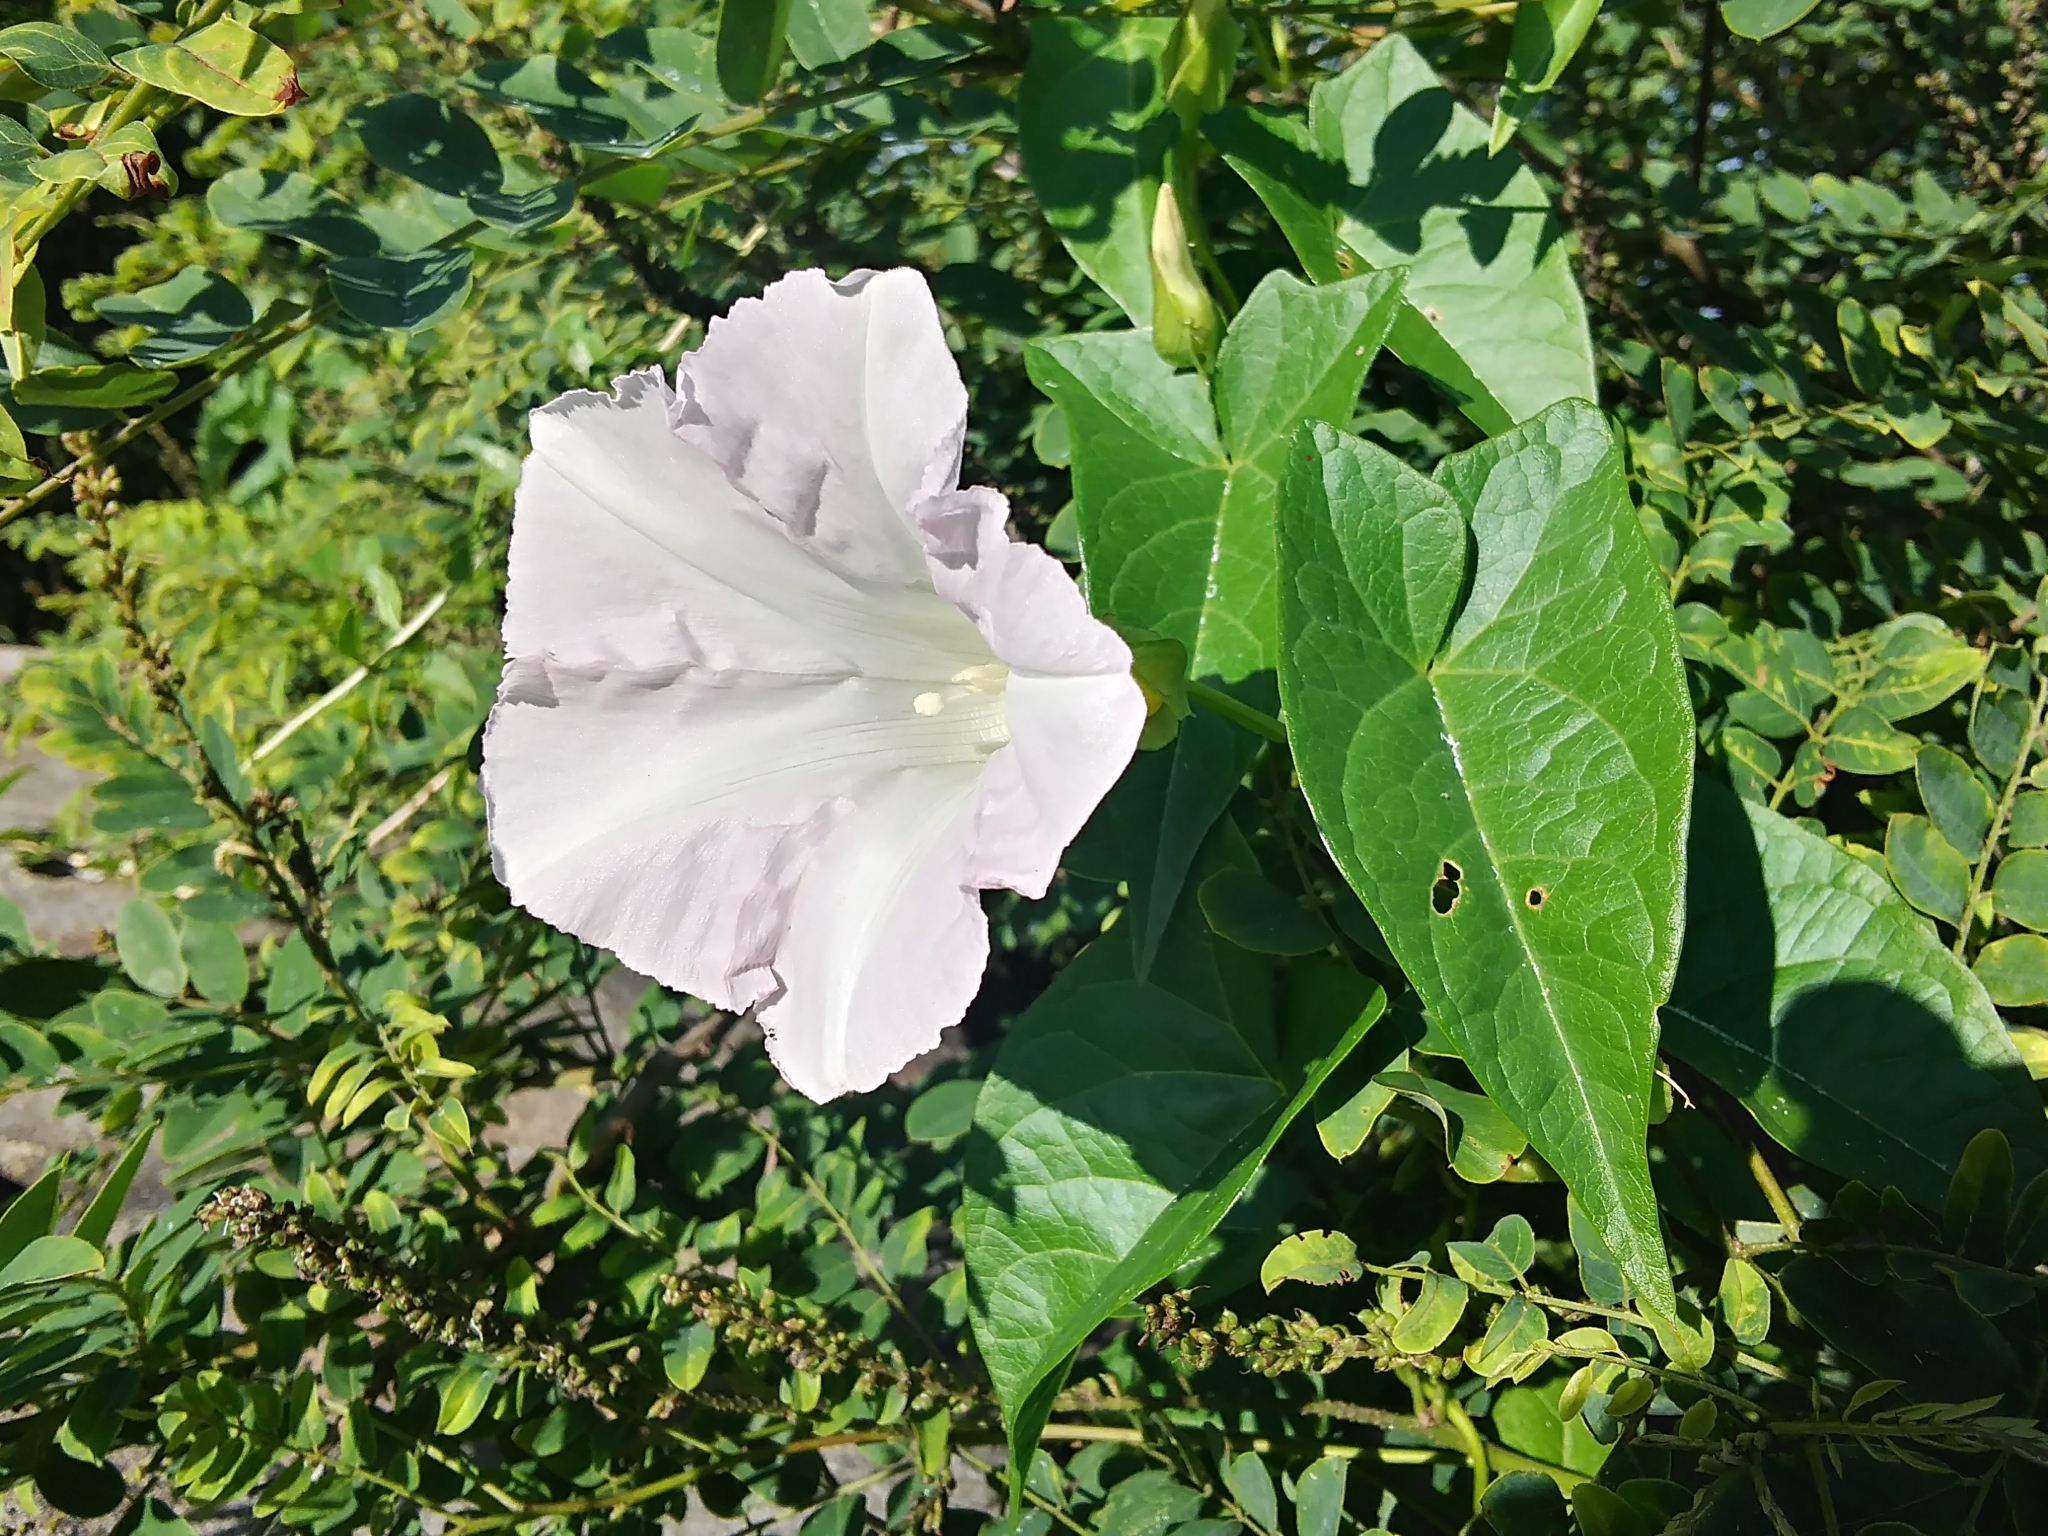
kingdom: Plantae
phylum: Tracheophyta
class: Magnoliopsida
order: Solanales
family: Convolvulaceae
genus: Calystegia
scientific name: Calystegia sepium
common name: Hedge bindweed
